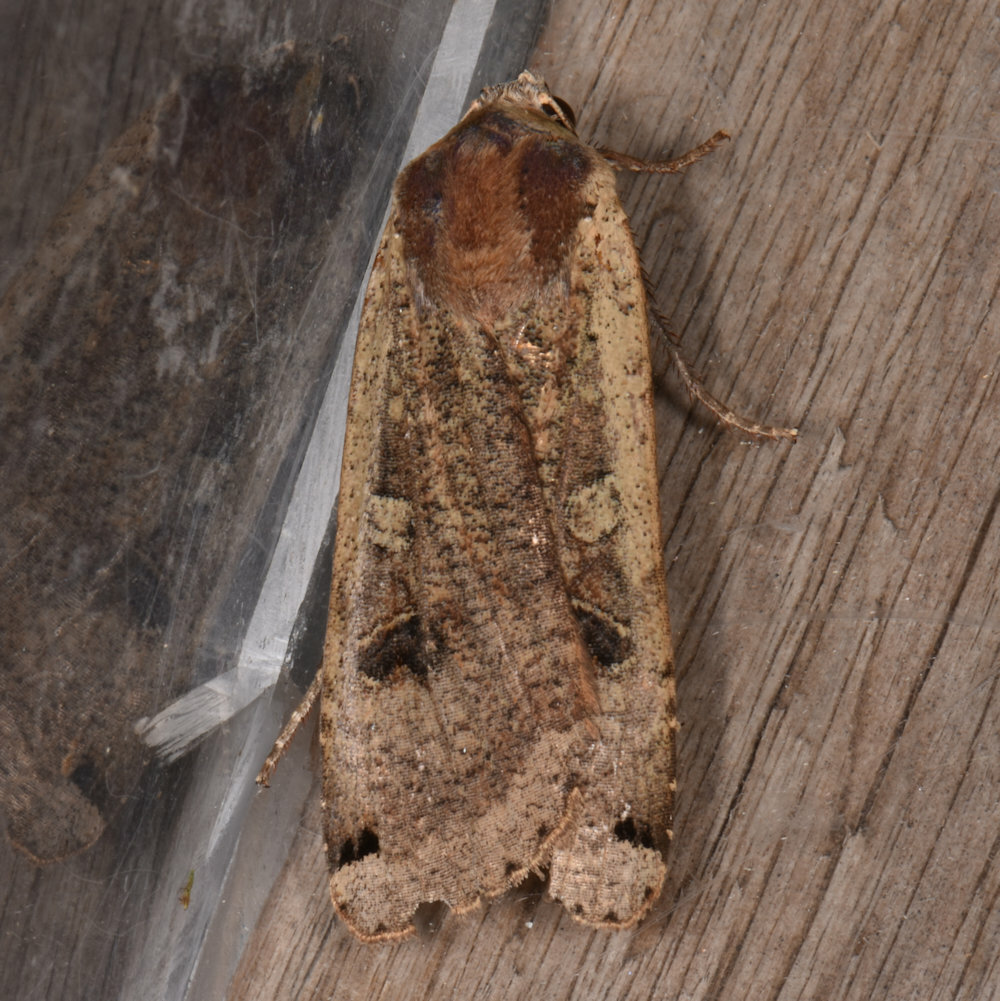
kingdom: Animalia
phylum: Arthropoda
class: Insecta
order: Lepidoptera
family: Noctuidae
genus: Noctua
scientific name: Noctua pronuba
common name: Large yellow underwing
